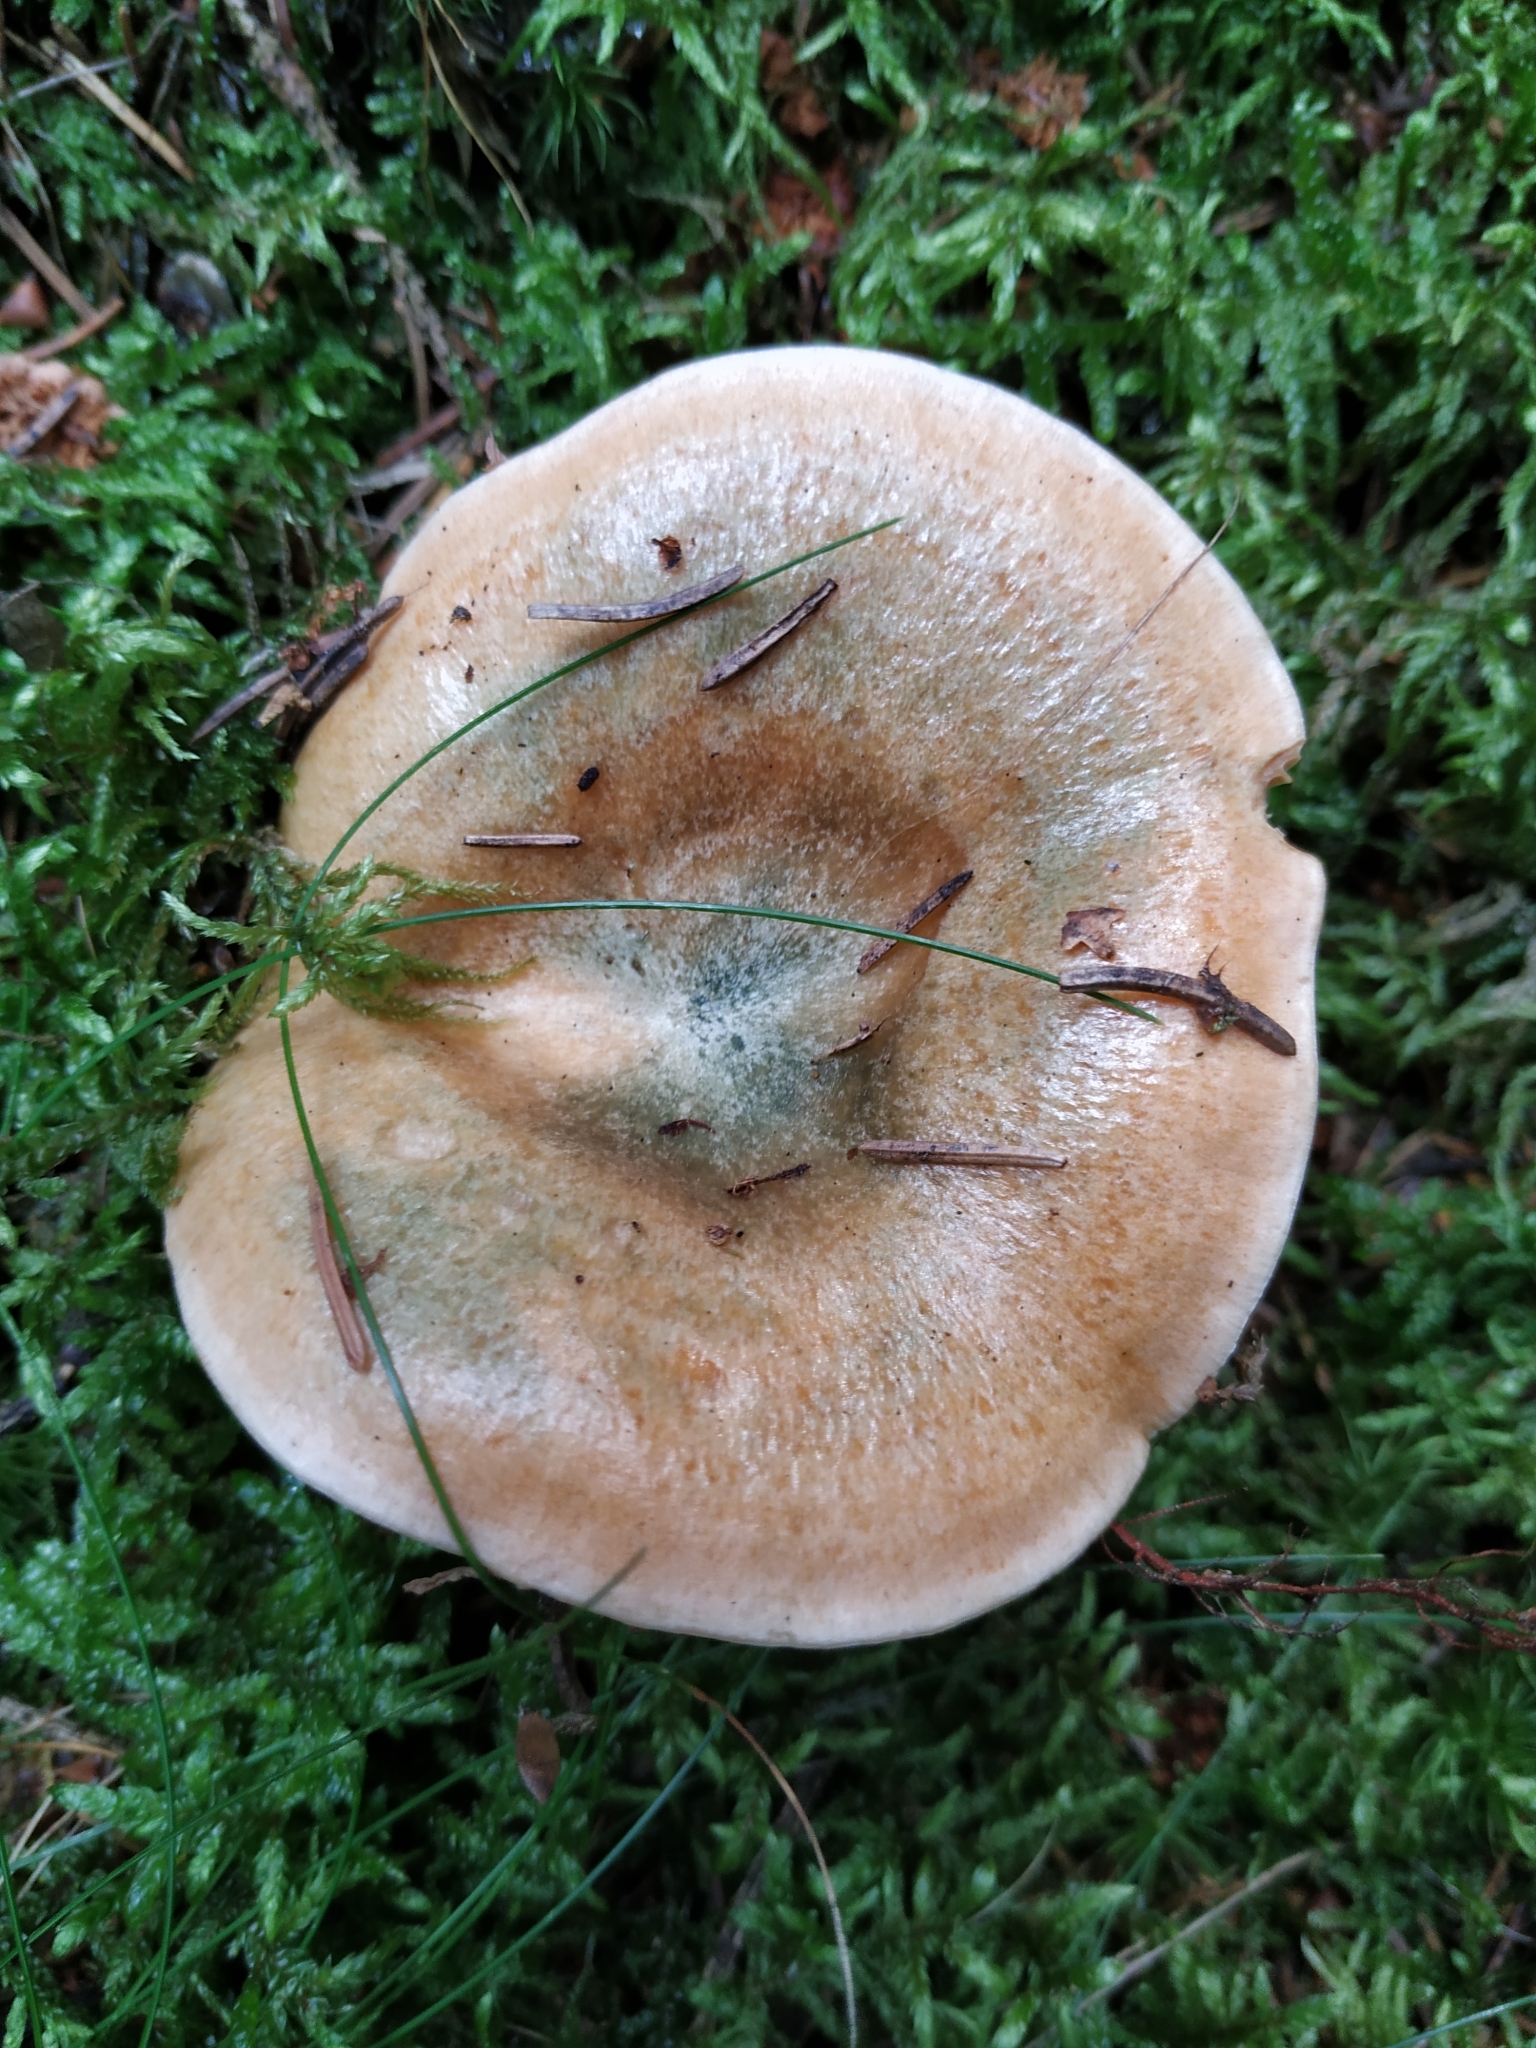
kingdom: Fungi
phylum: Basidiomycota
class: Agaricomycetes
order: Russulales
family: Russulaceae
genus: Lactarius
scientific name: Lactarius deterrimus
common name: False saffron milkcap
